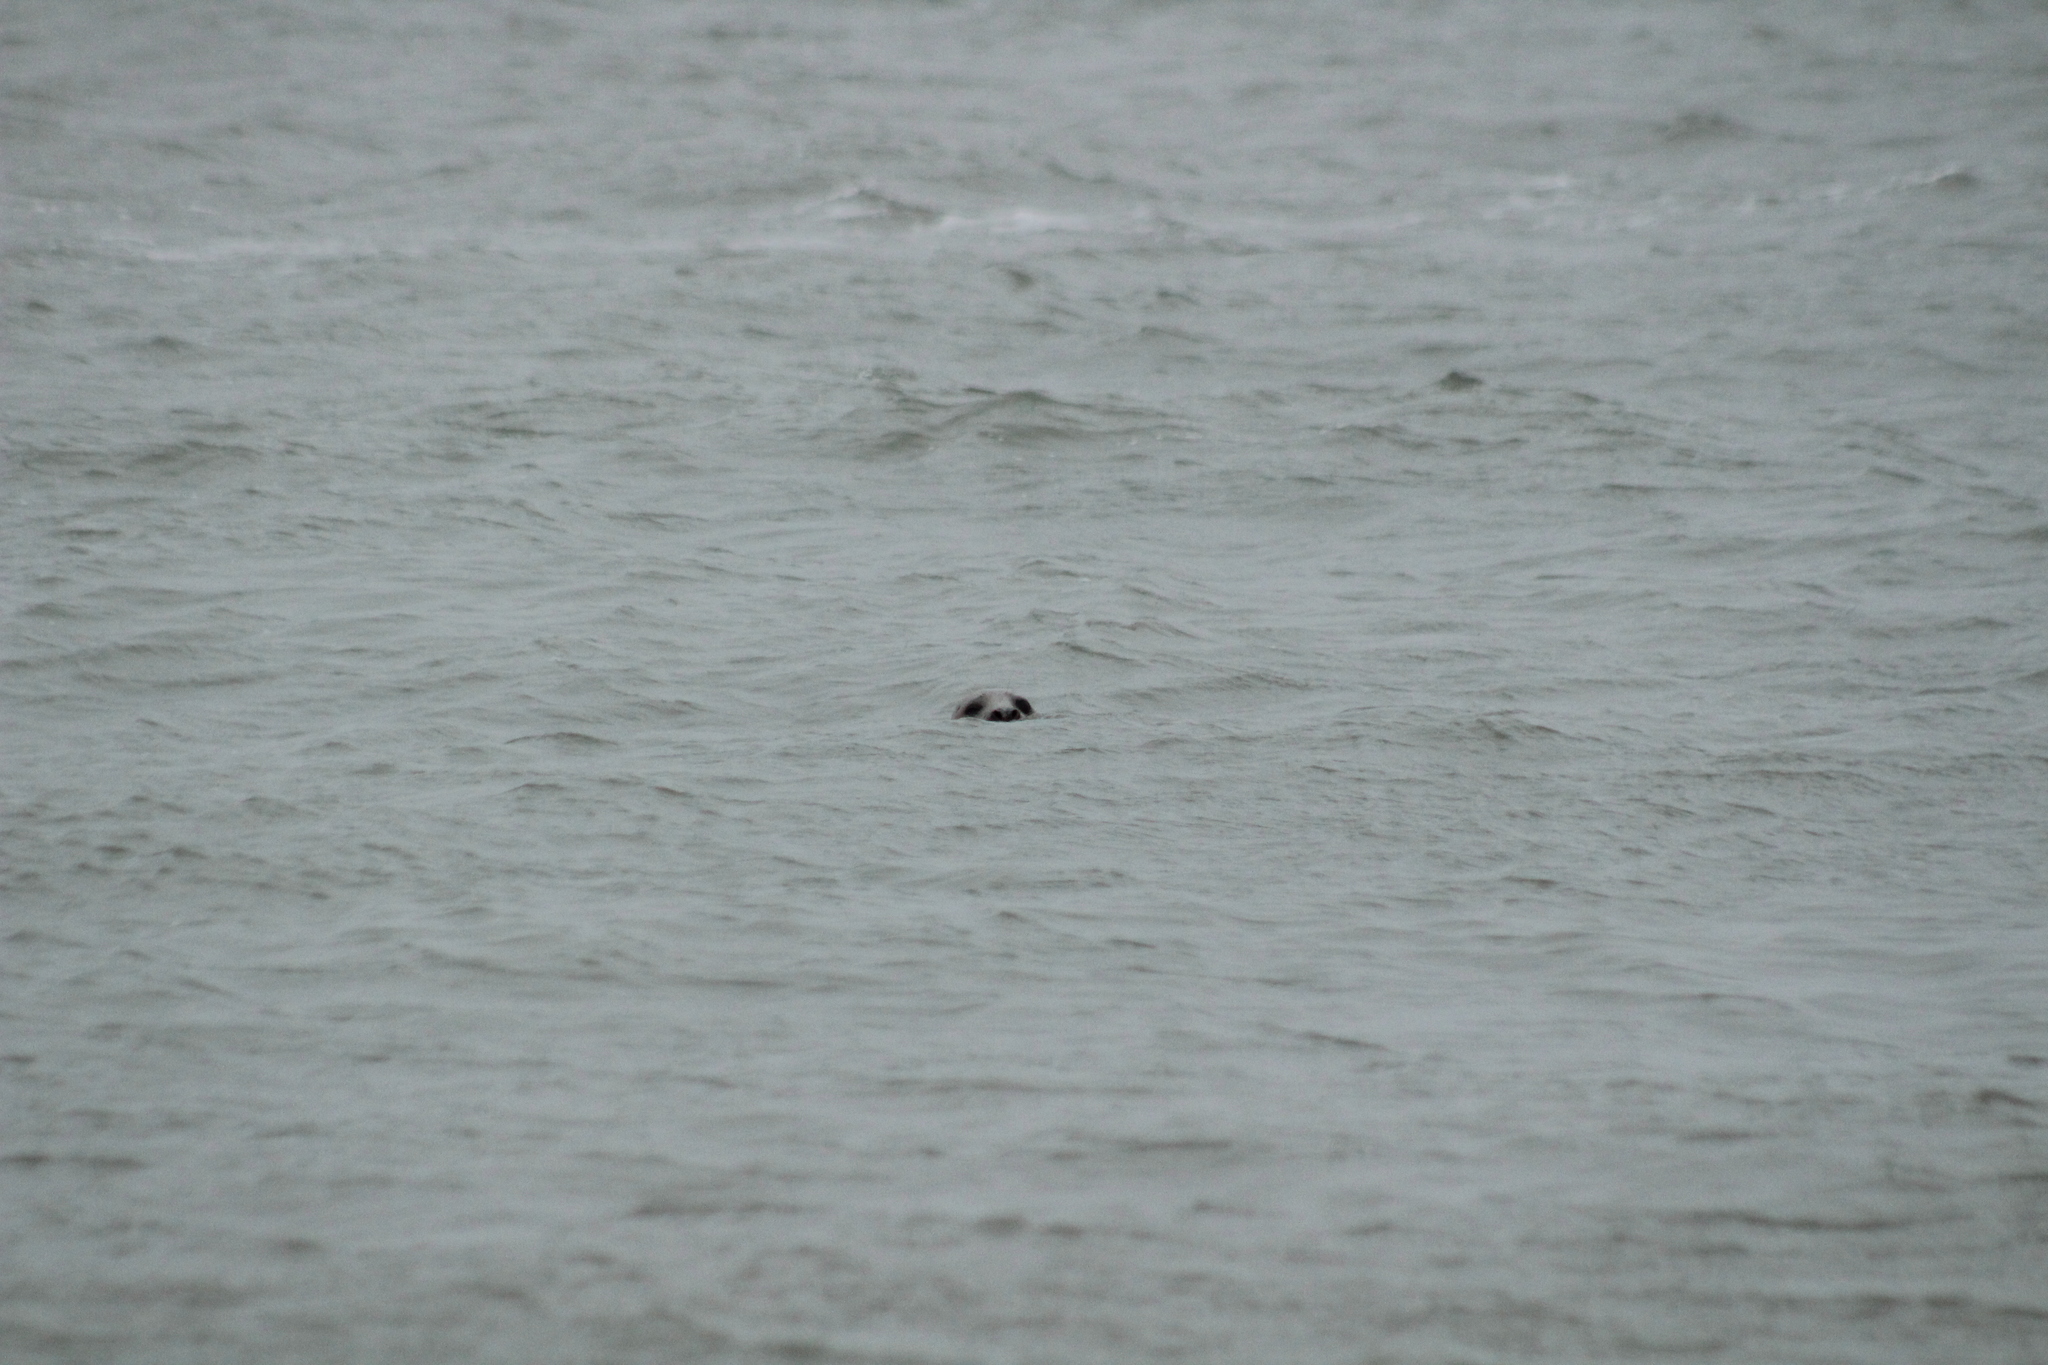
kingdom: Animalia
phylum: Chordata
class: Mammalia
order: Carnivora
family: Phocidae
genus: Halichoerus
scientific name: Halichoerus grypus
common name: Grey seal
